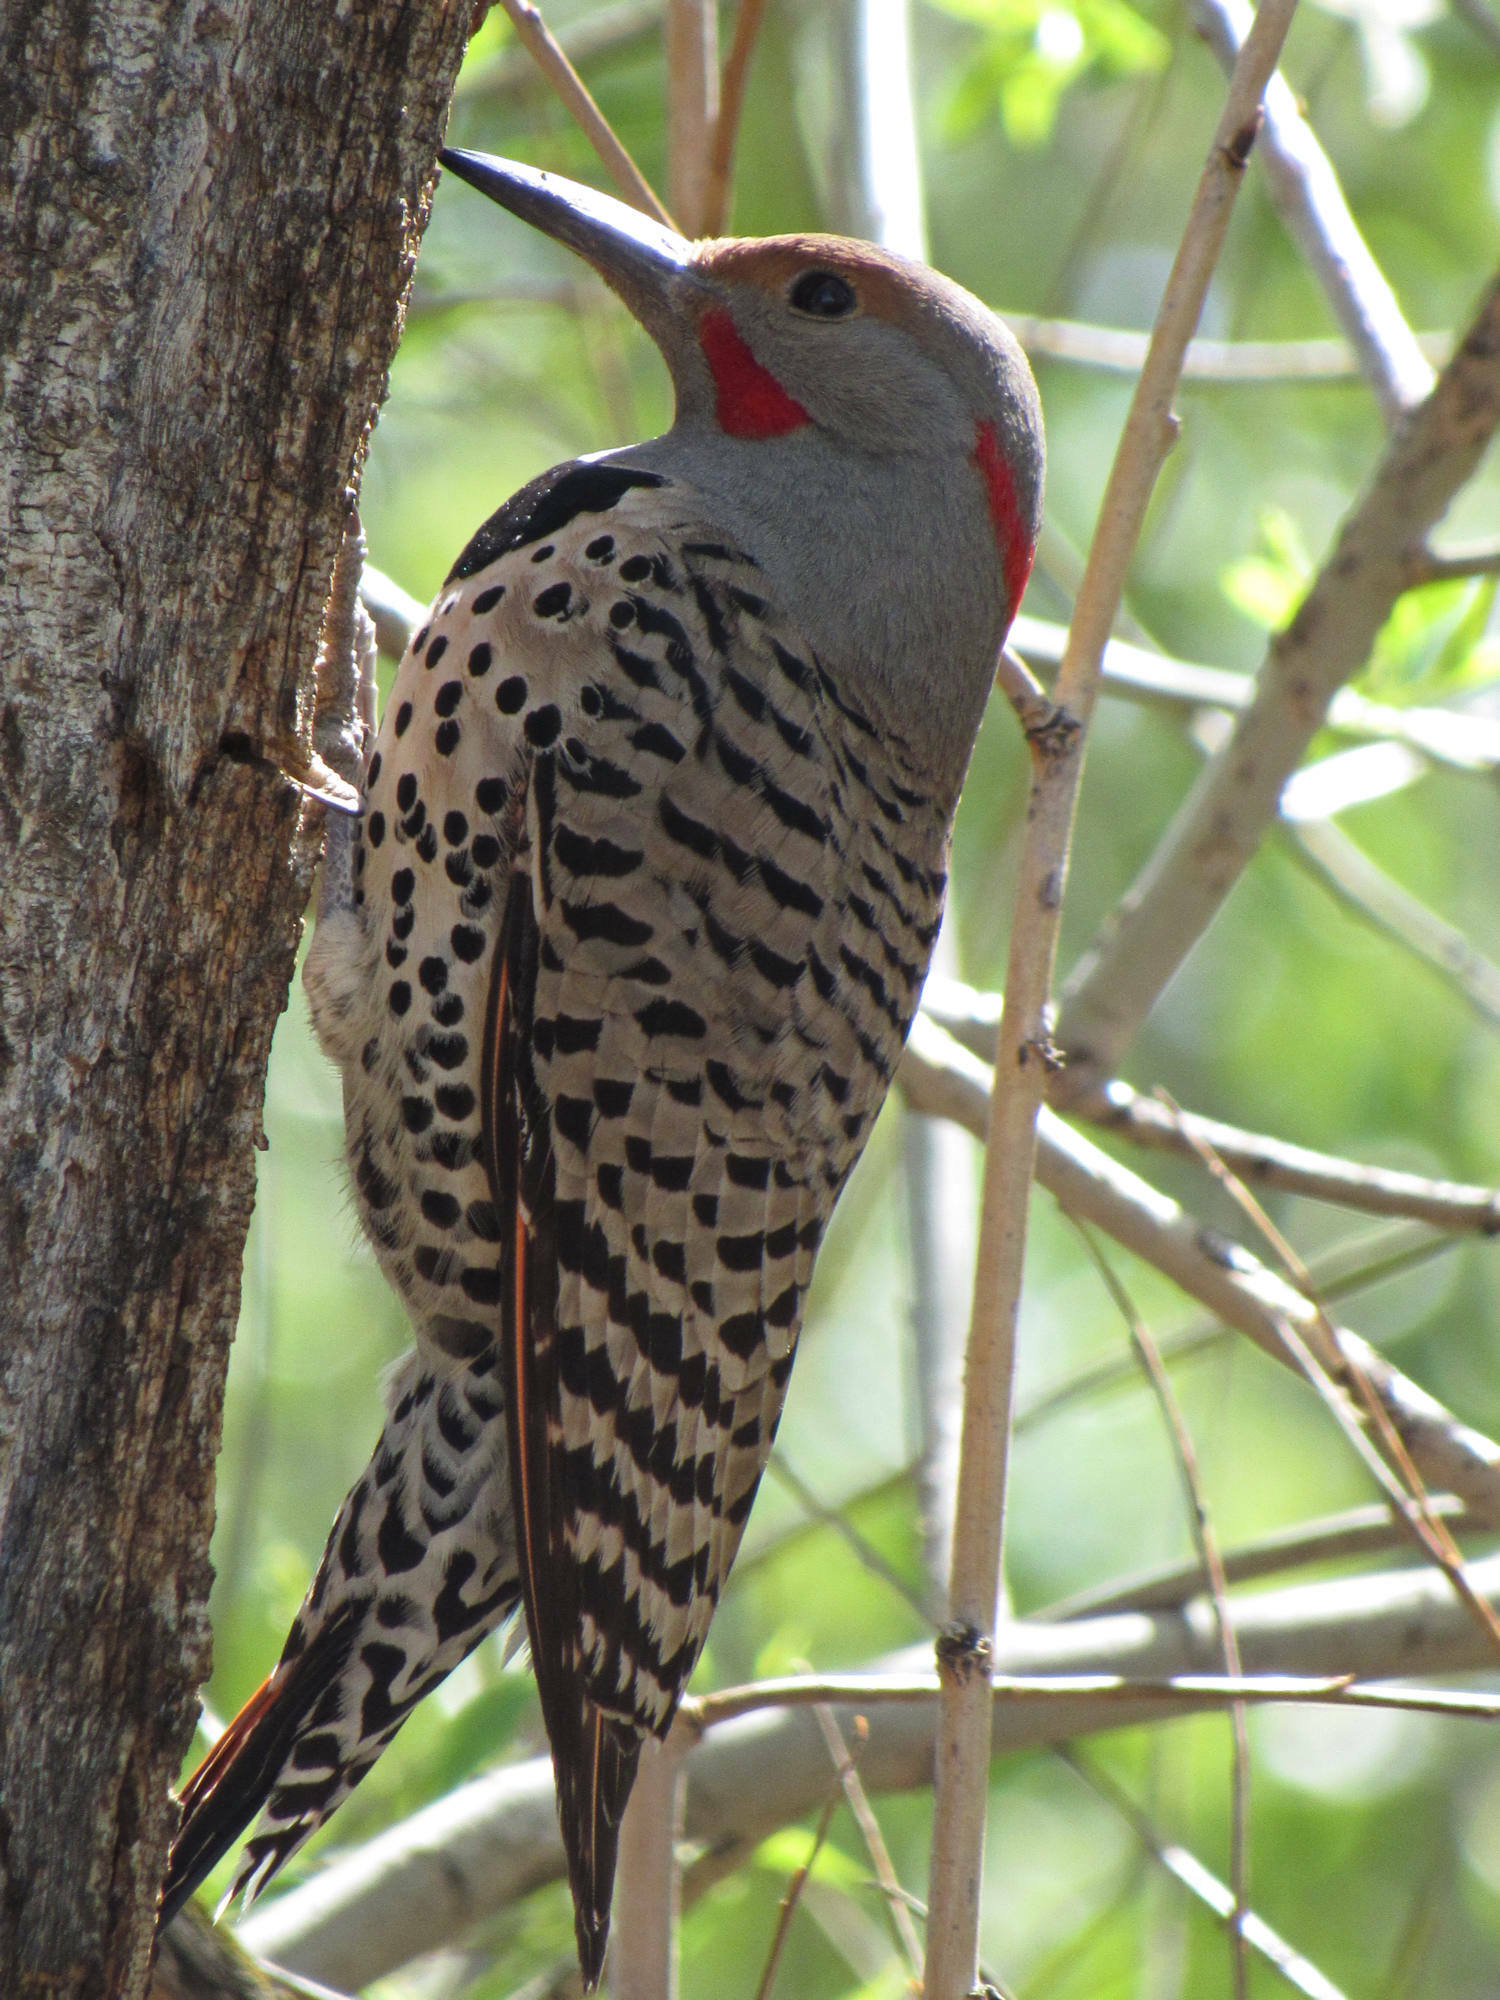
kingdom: Animalia
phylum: Chordata
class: Aves
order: Piciformes
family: Picidae
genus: Colaptes
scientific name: Colaptes
